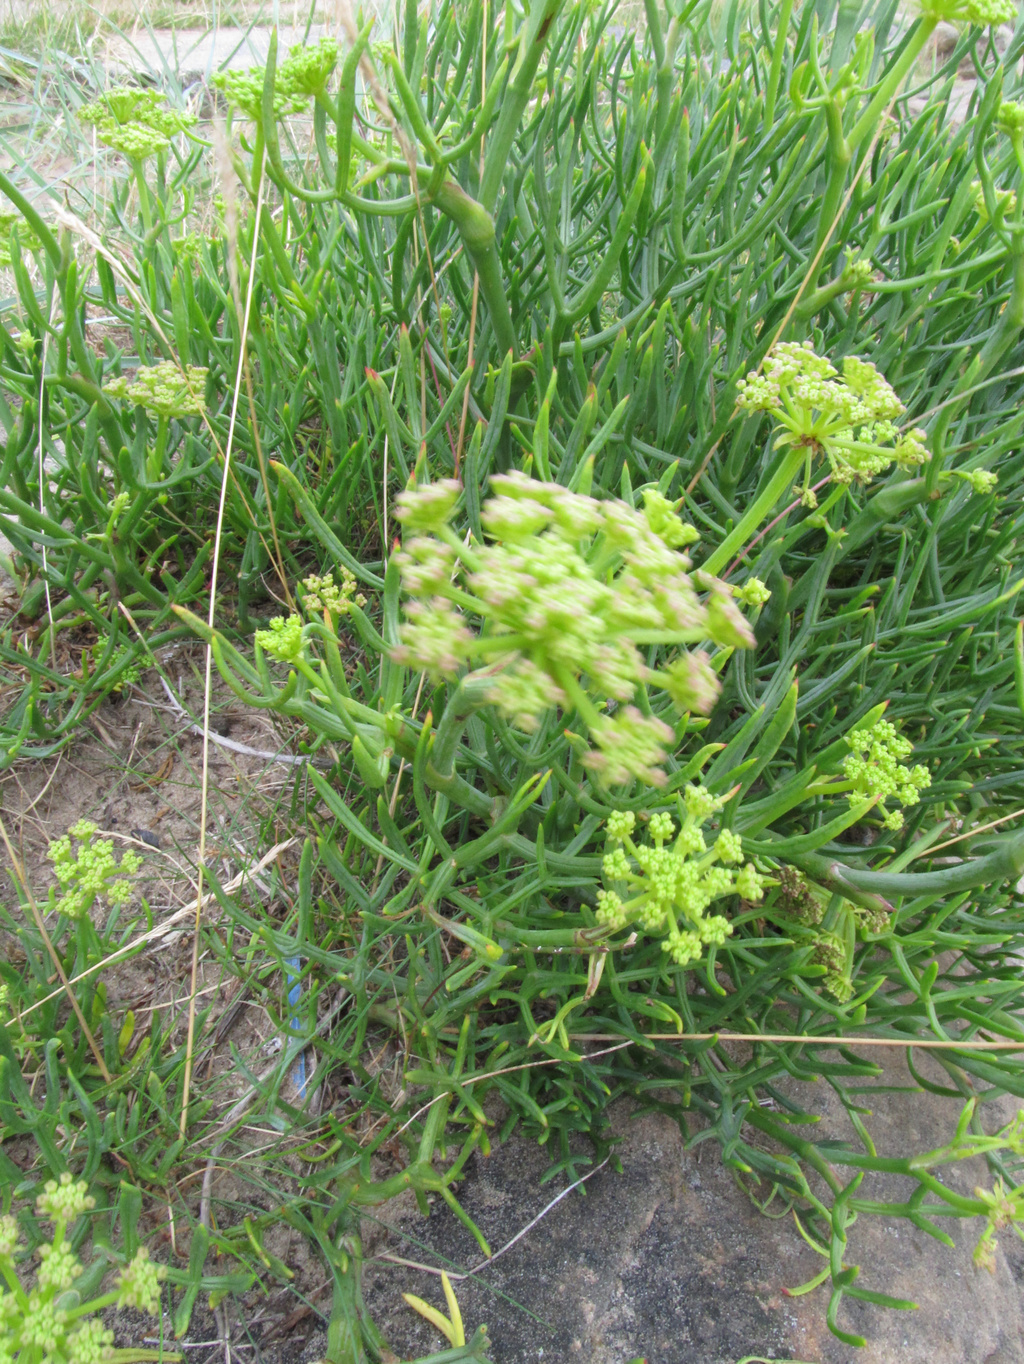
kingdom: Plantae
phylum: Tracheophyta
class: Magnoliopsida
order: Apiales
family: Apiaceae
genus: Crithmum
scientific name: Crithmum maritimum
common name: Rock samphire
